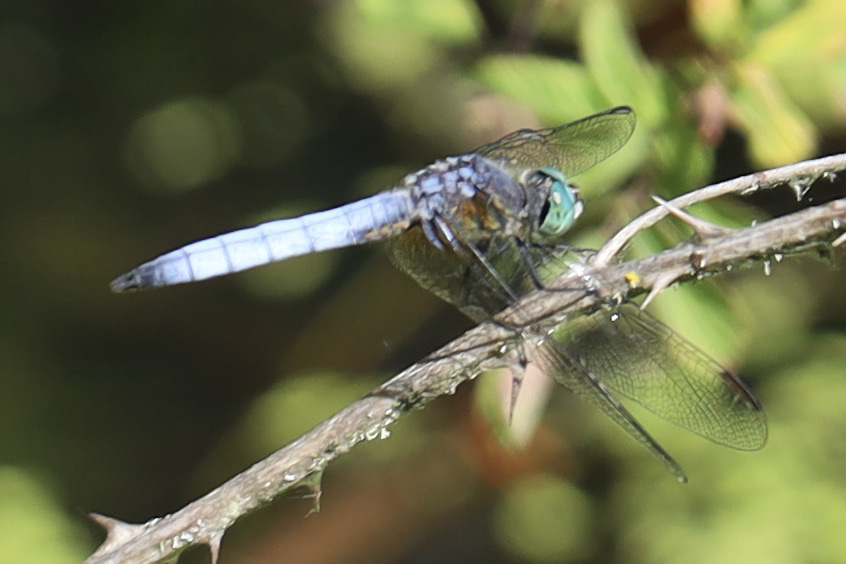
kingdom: Animalia
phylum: Arthropoda
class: Insecta
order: Odonata
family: Libellulidae
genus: Pachydiplax
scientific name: Pachydiplax longipennis
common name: Blue dasher
